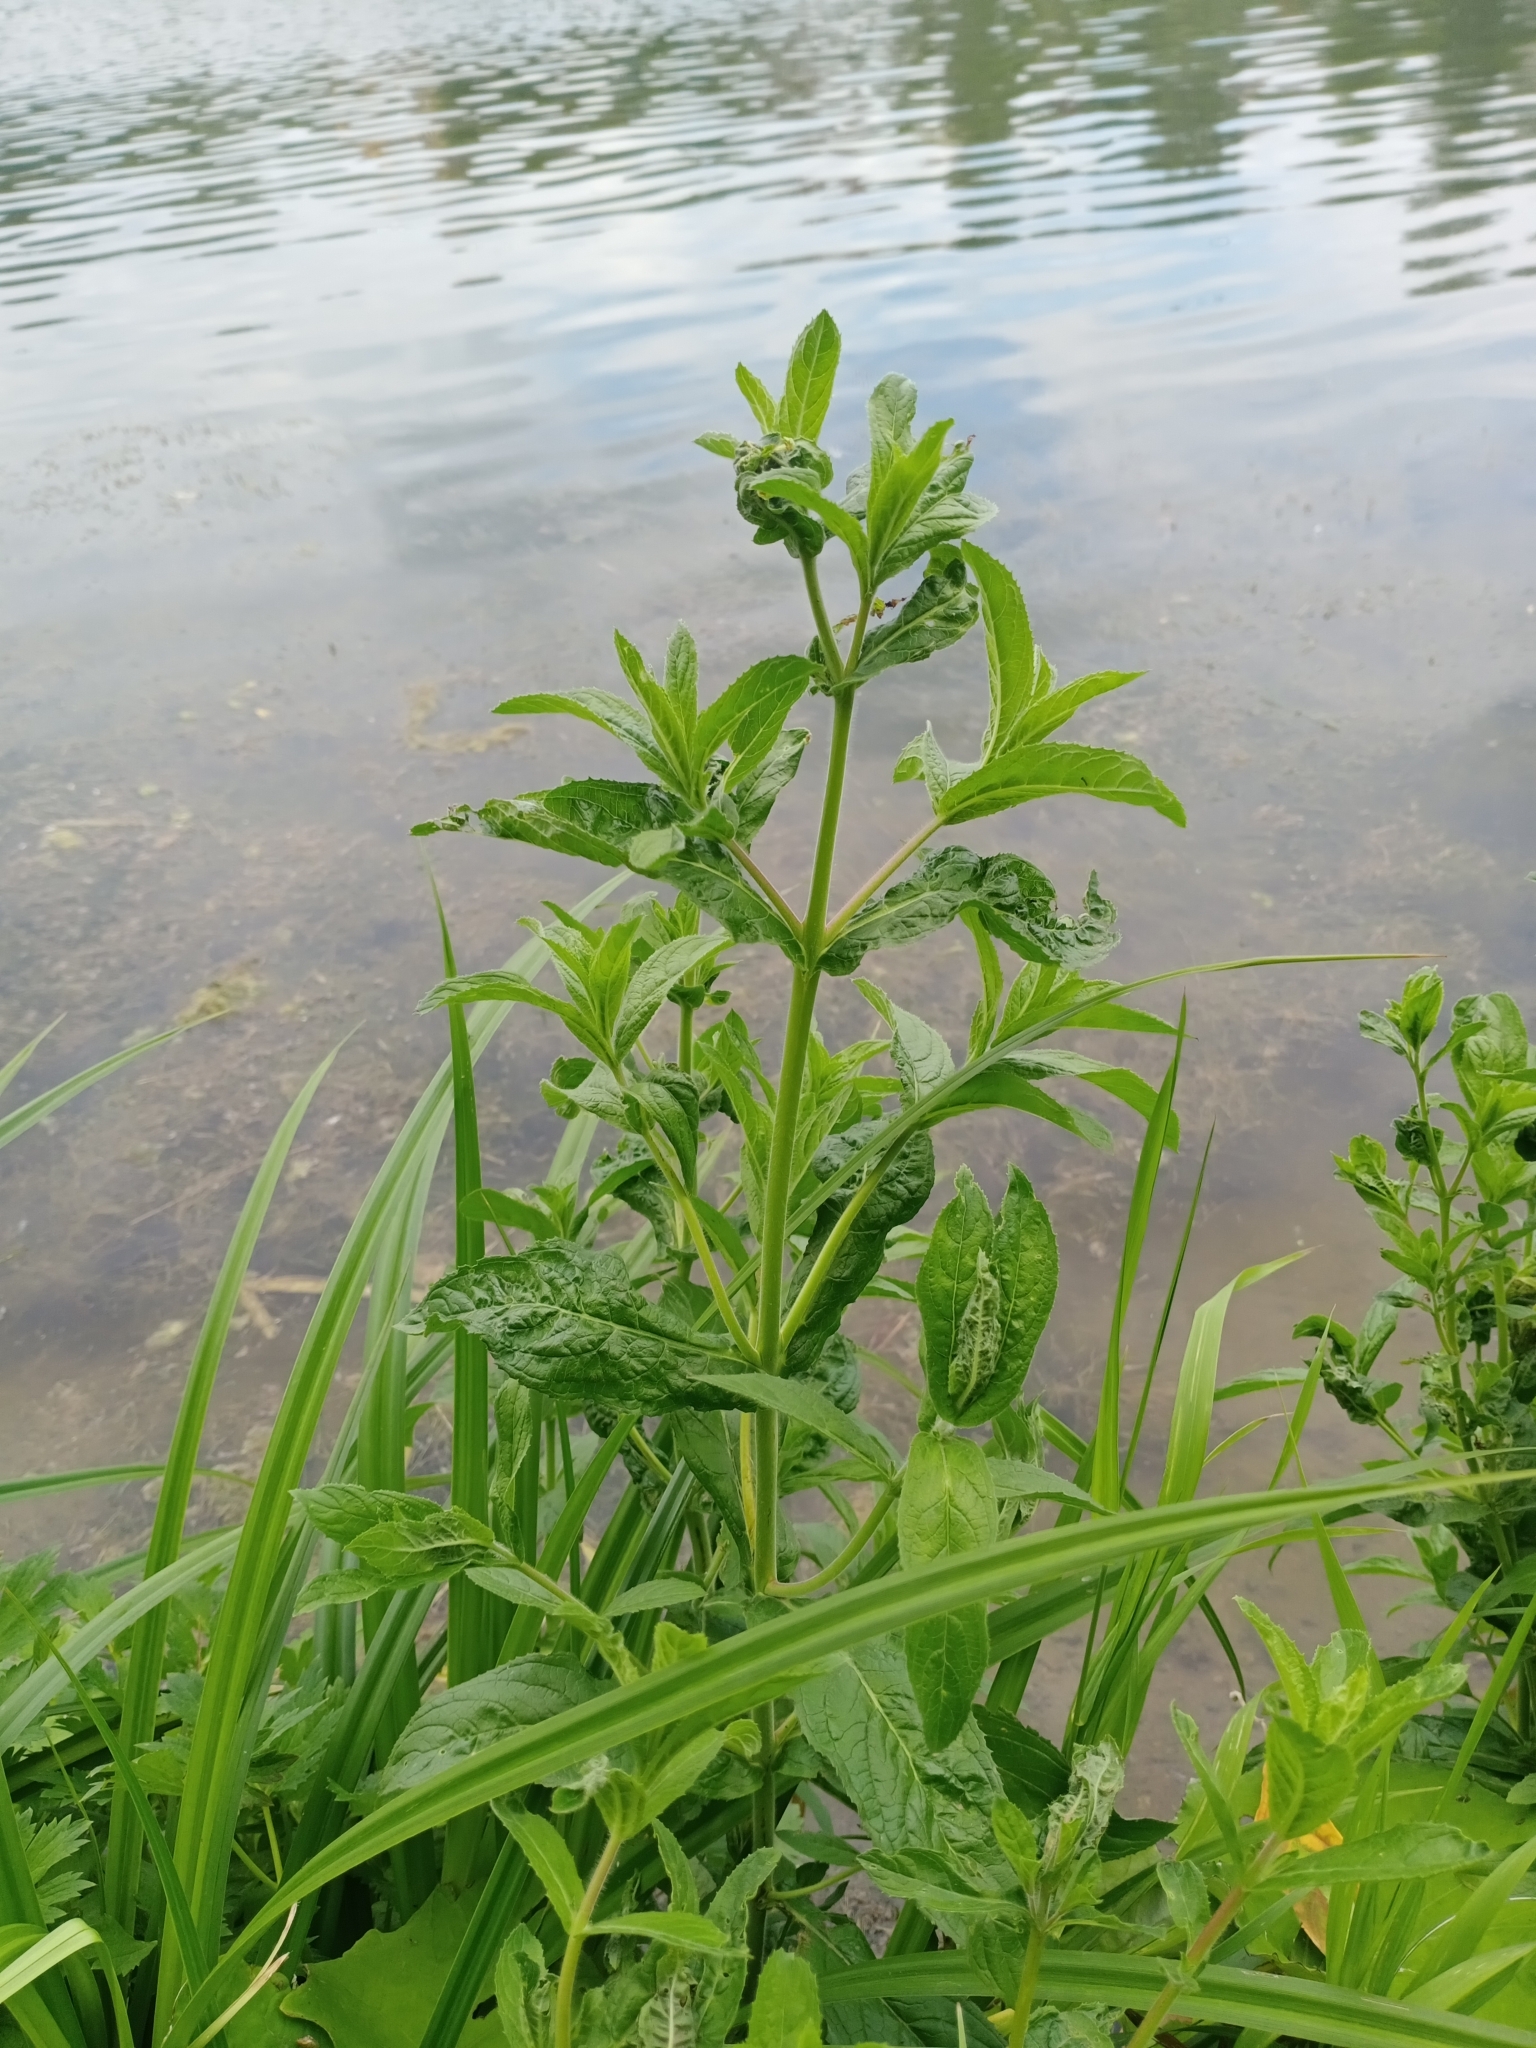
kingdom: Plantae
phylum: Tracheophyta
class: Magnoliopsida
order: Myrtales
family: Onagraceae
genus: Epilobium
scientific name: Epilobium hirsutum
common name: Great willowherb
